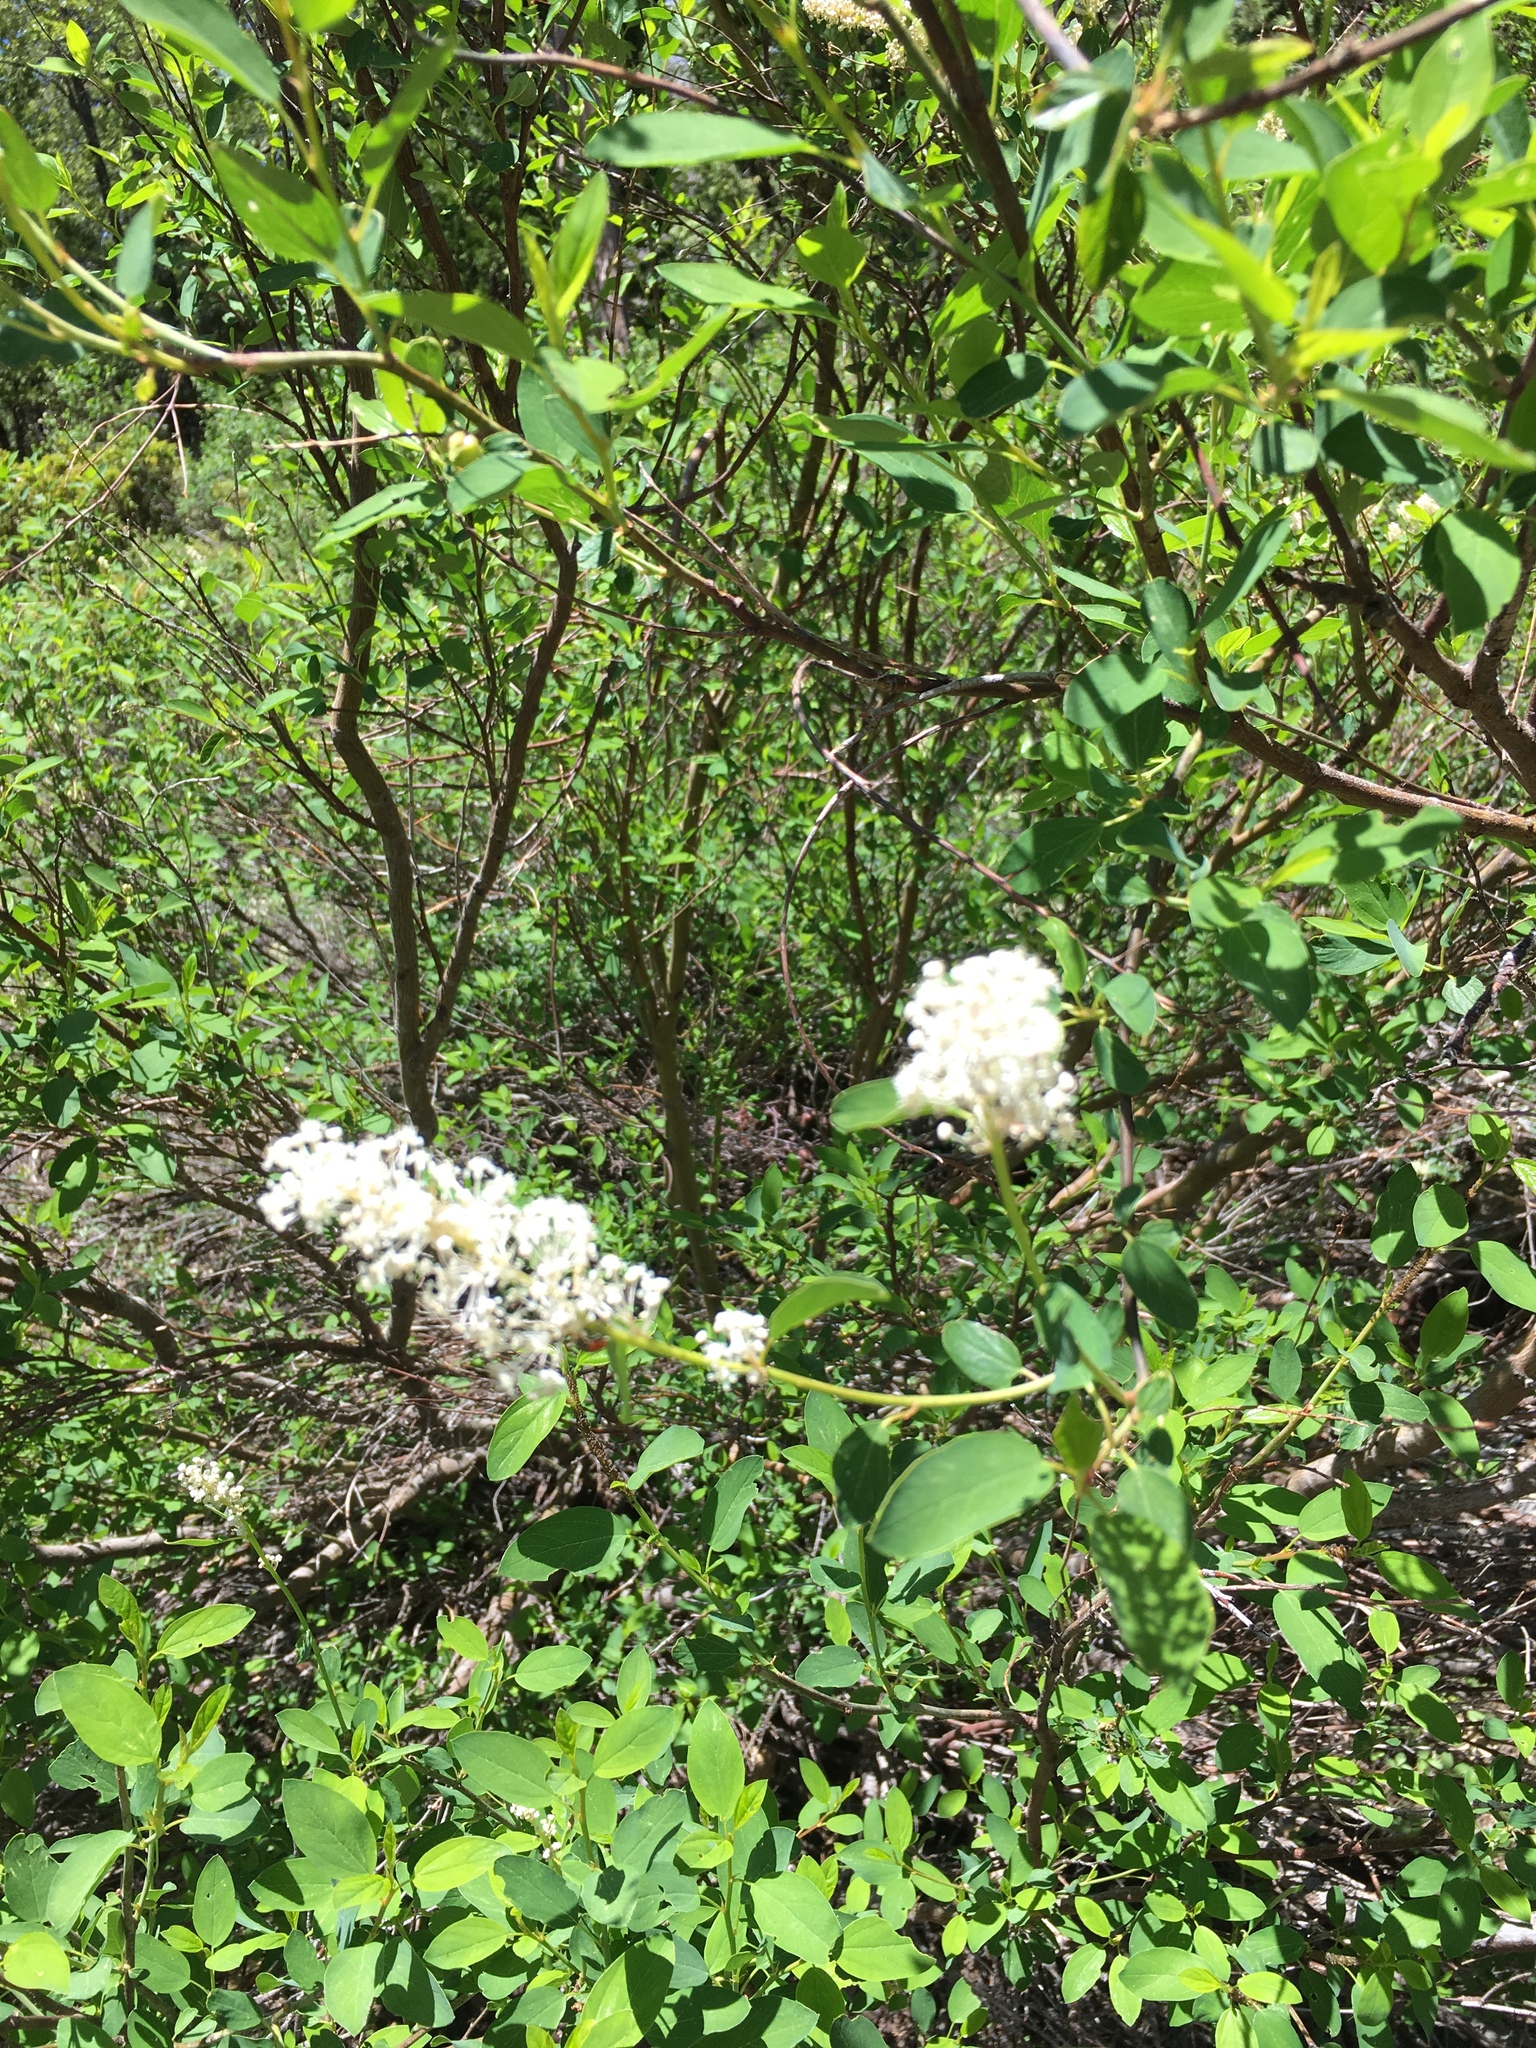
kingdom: Plantae
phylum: Tracheophyta
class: Magnoliopsida
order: Rosales
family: Rhamnaceae
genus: Ceanothus
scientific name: Ceanothus integerrimus
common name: Deerbrush ceanothus
